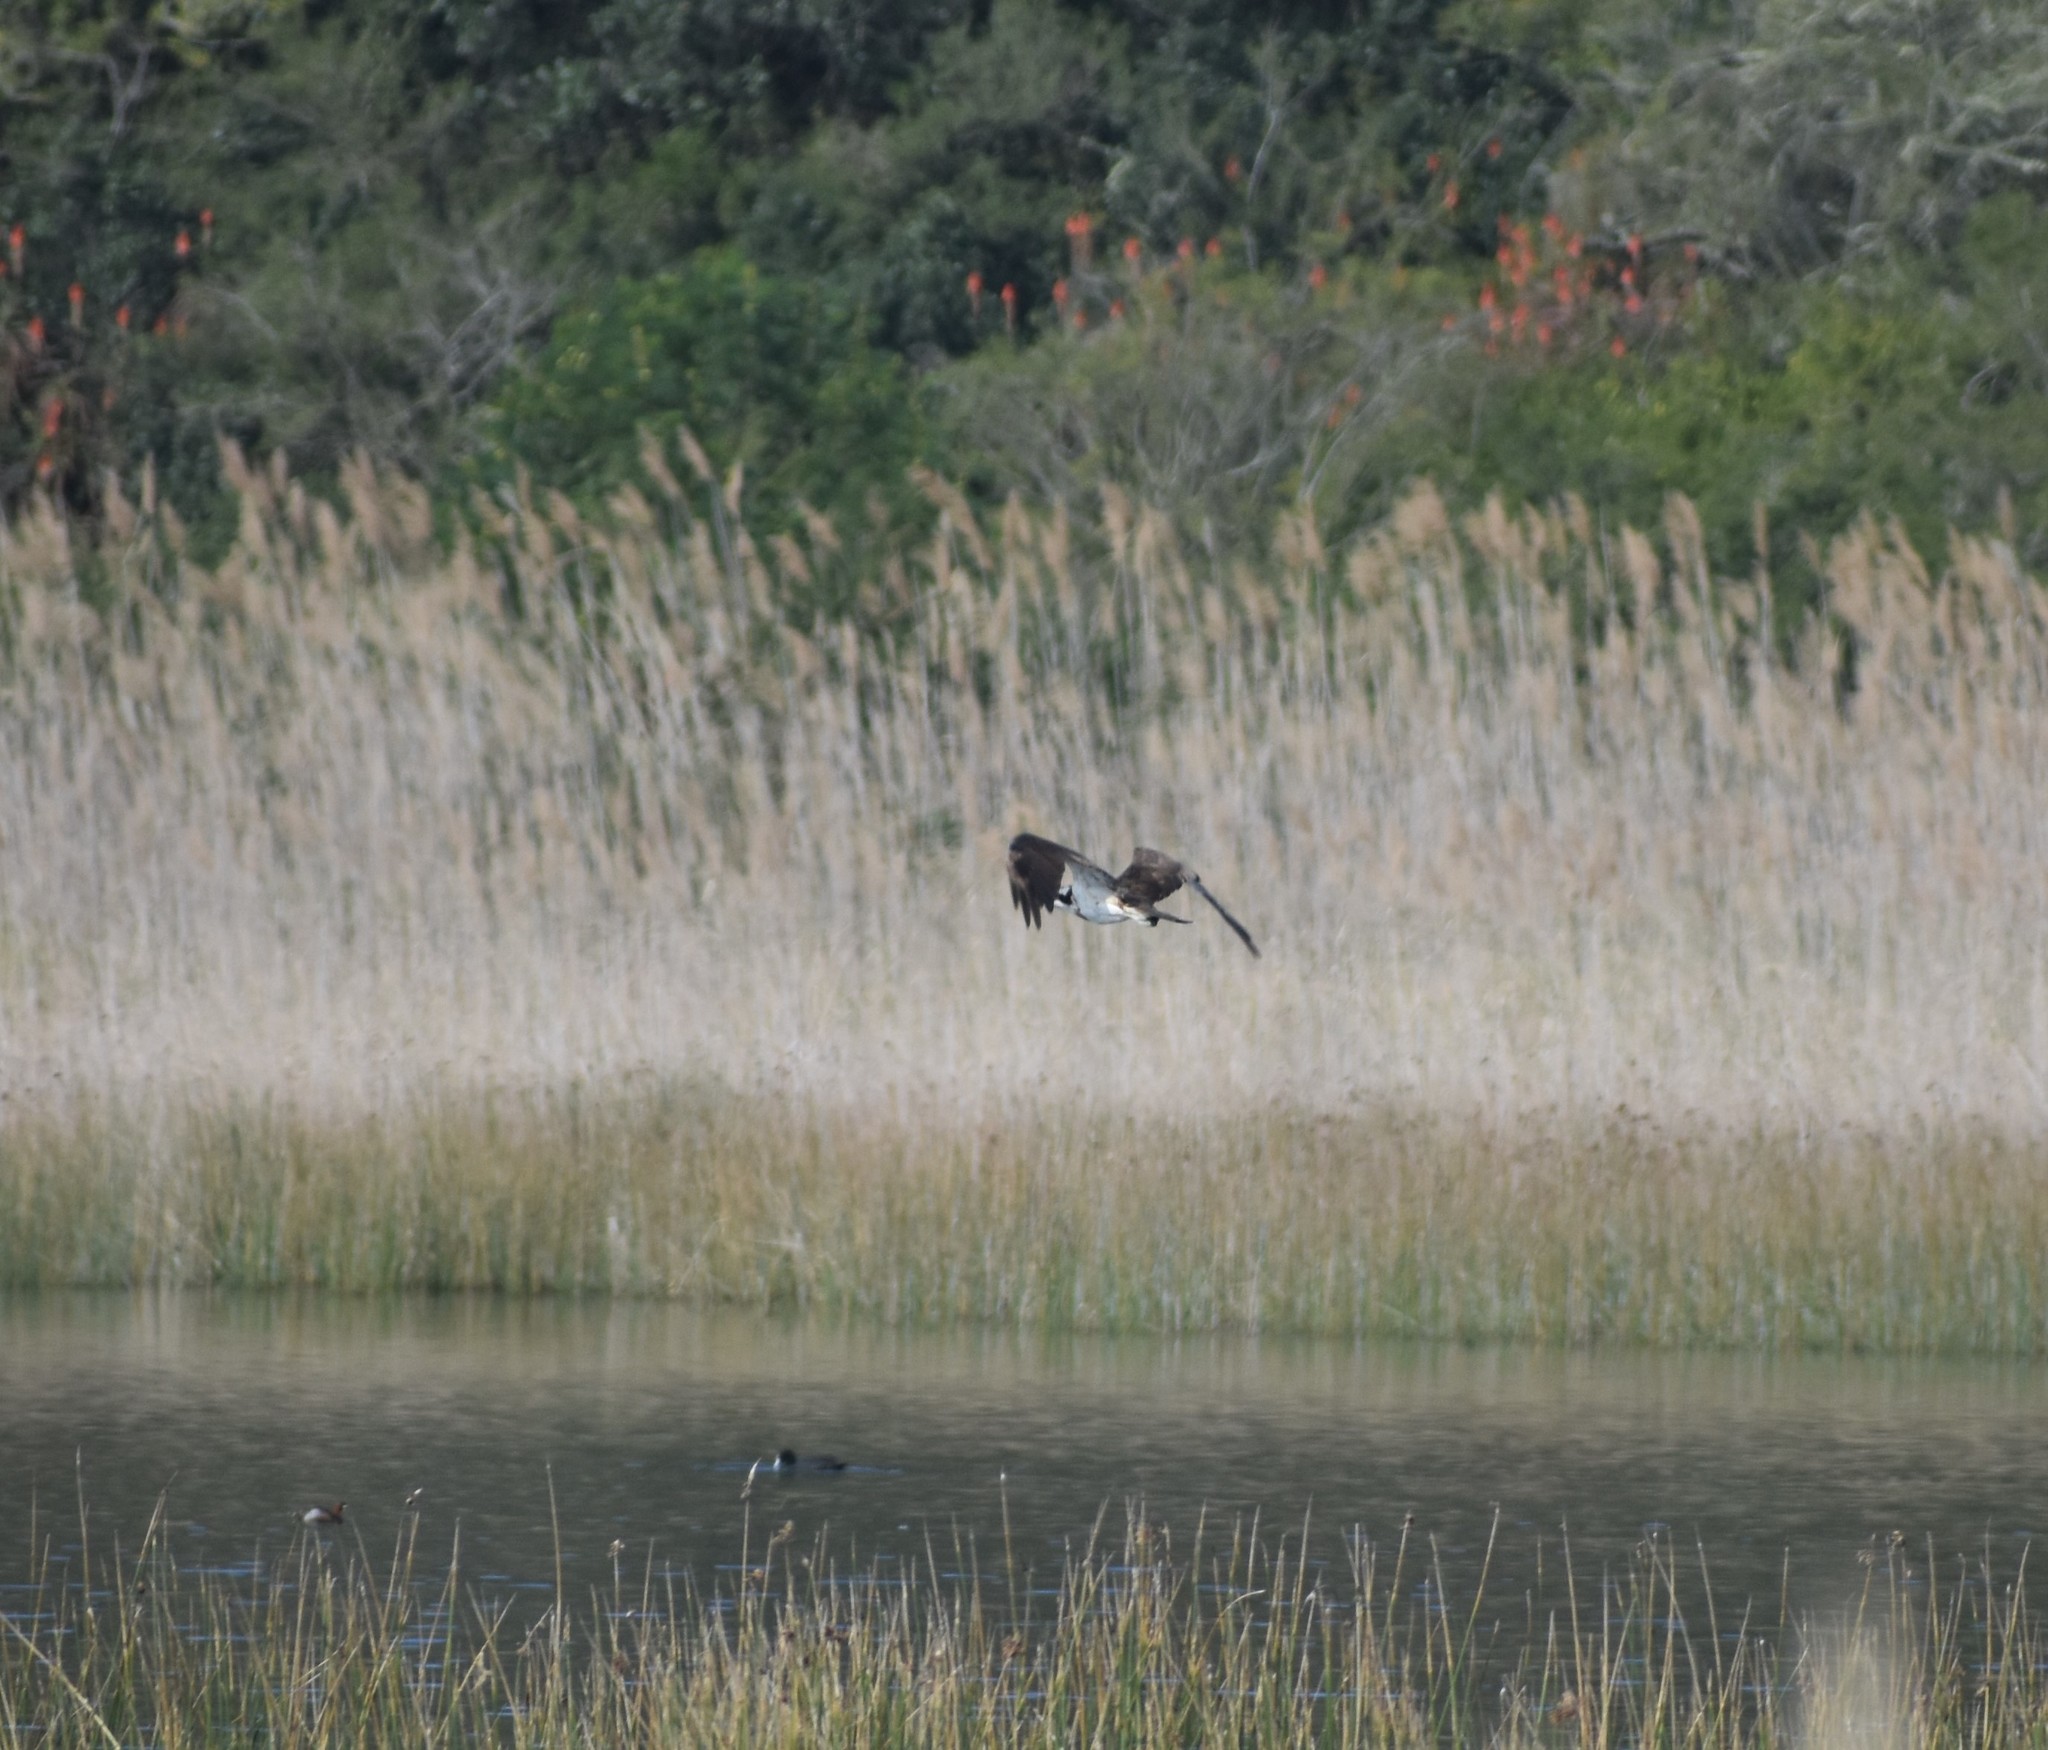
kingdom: Animalia
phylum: Chordata
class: Aves
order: Accipitriformes
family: Pandionidae
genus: Pandion
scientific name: Pandion haliaetus
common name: Osprey
